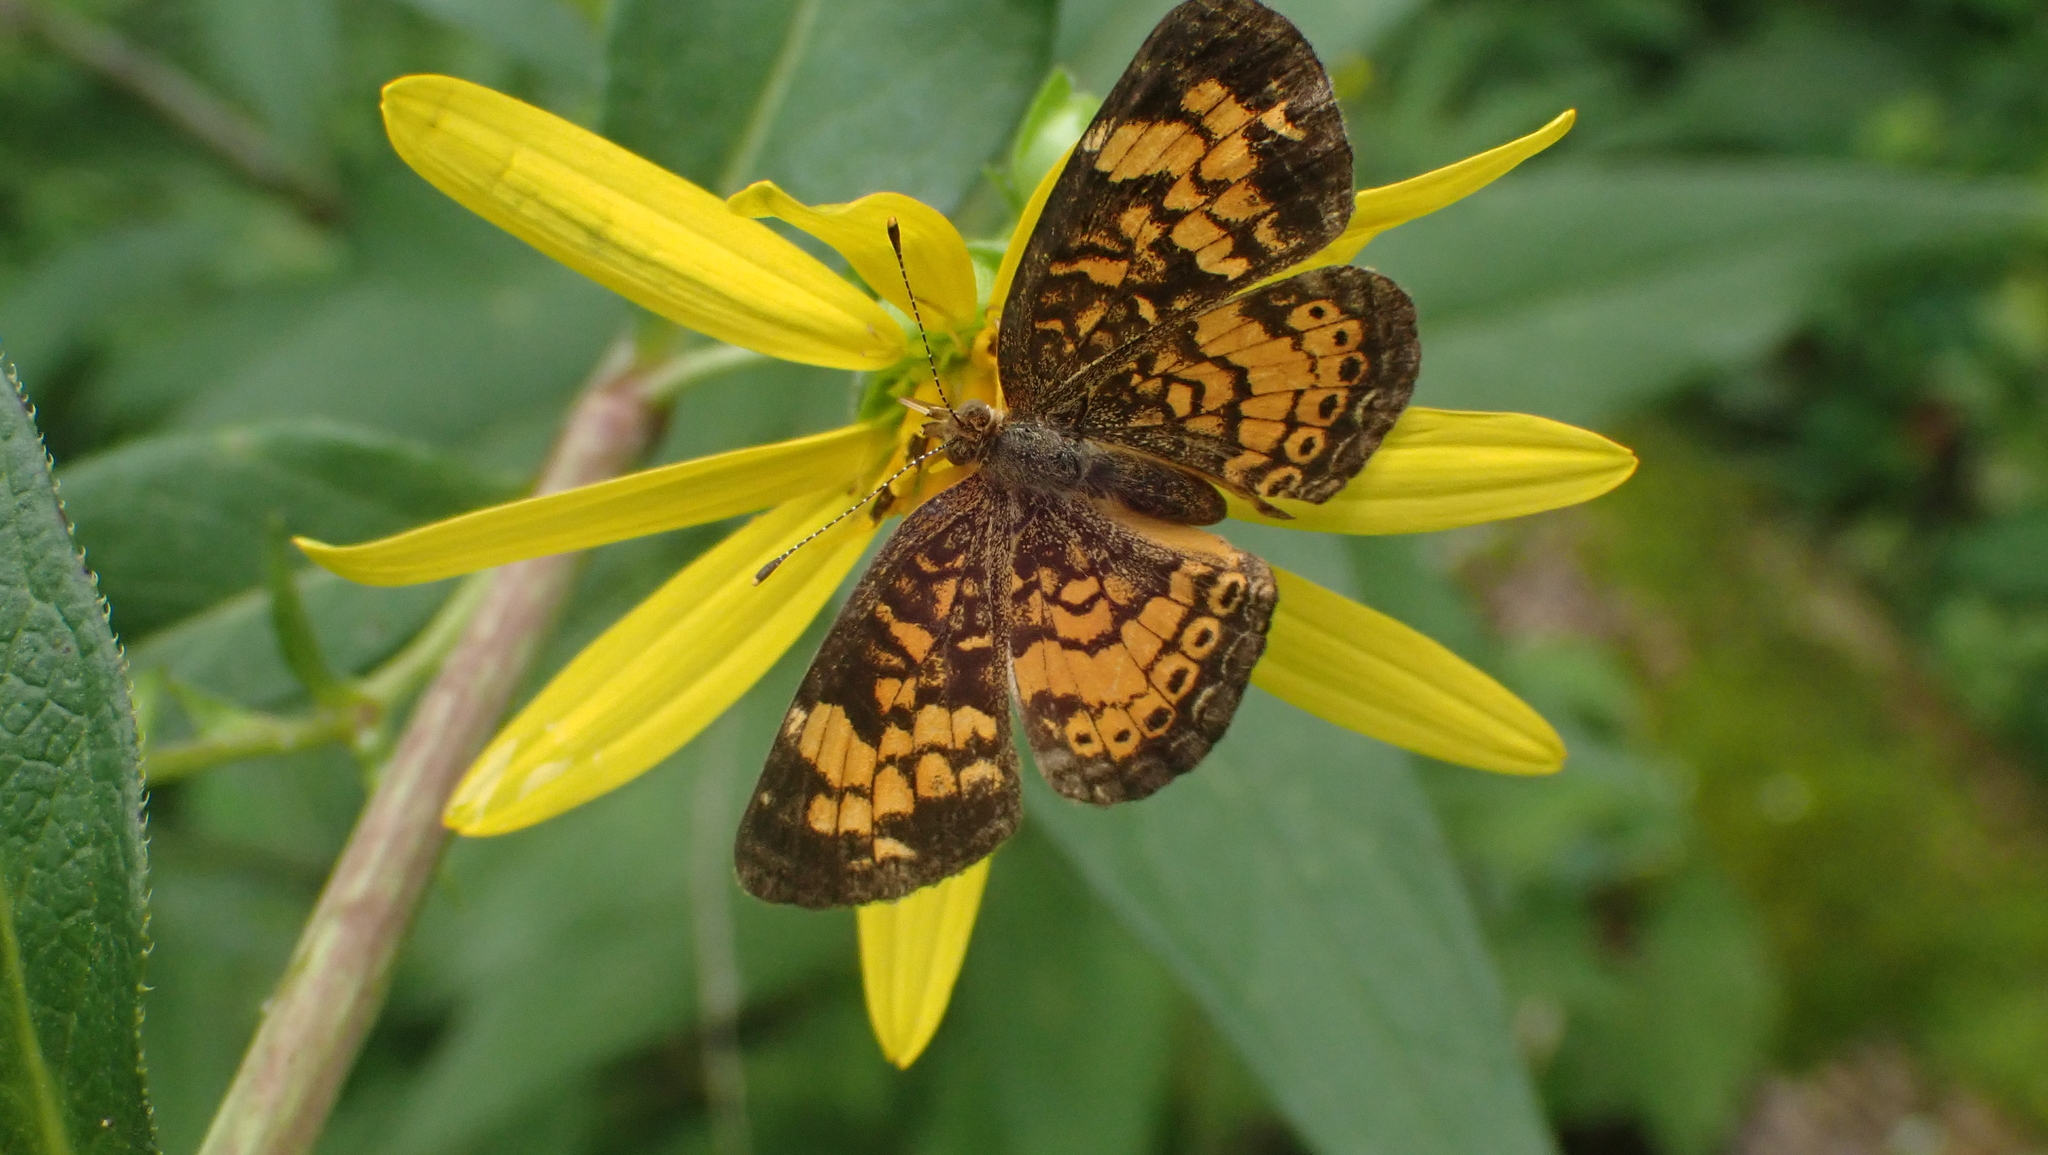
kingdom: Animalia
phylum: Arthropoda
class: Insecta
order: Lepidoptera
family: Nymphalidae
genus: Phyciodes
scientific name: Phyciodes tharos
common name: Pearl crescent
